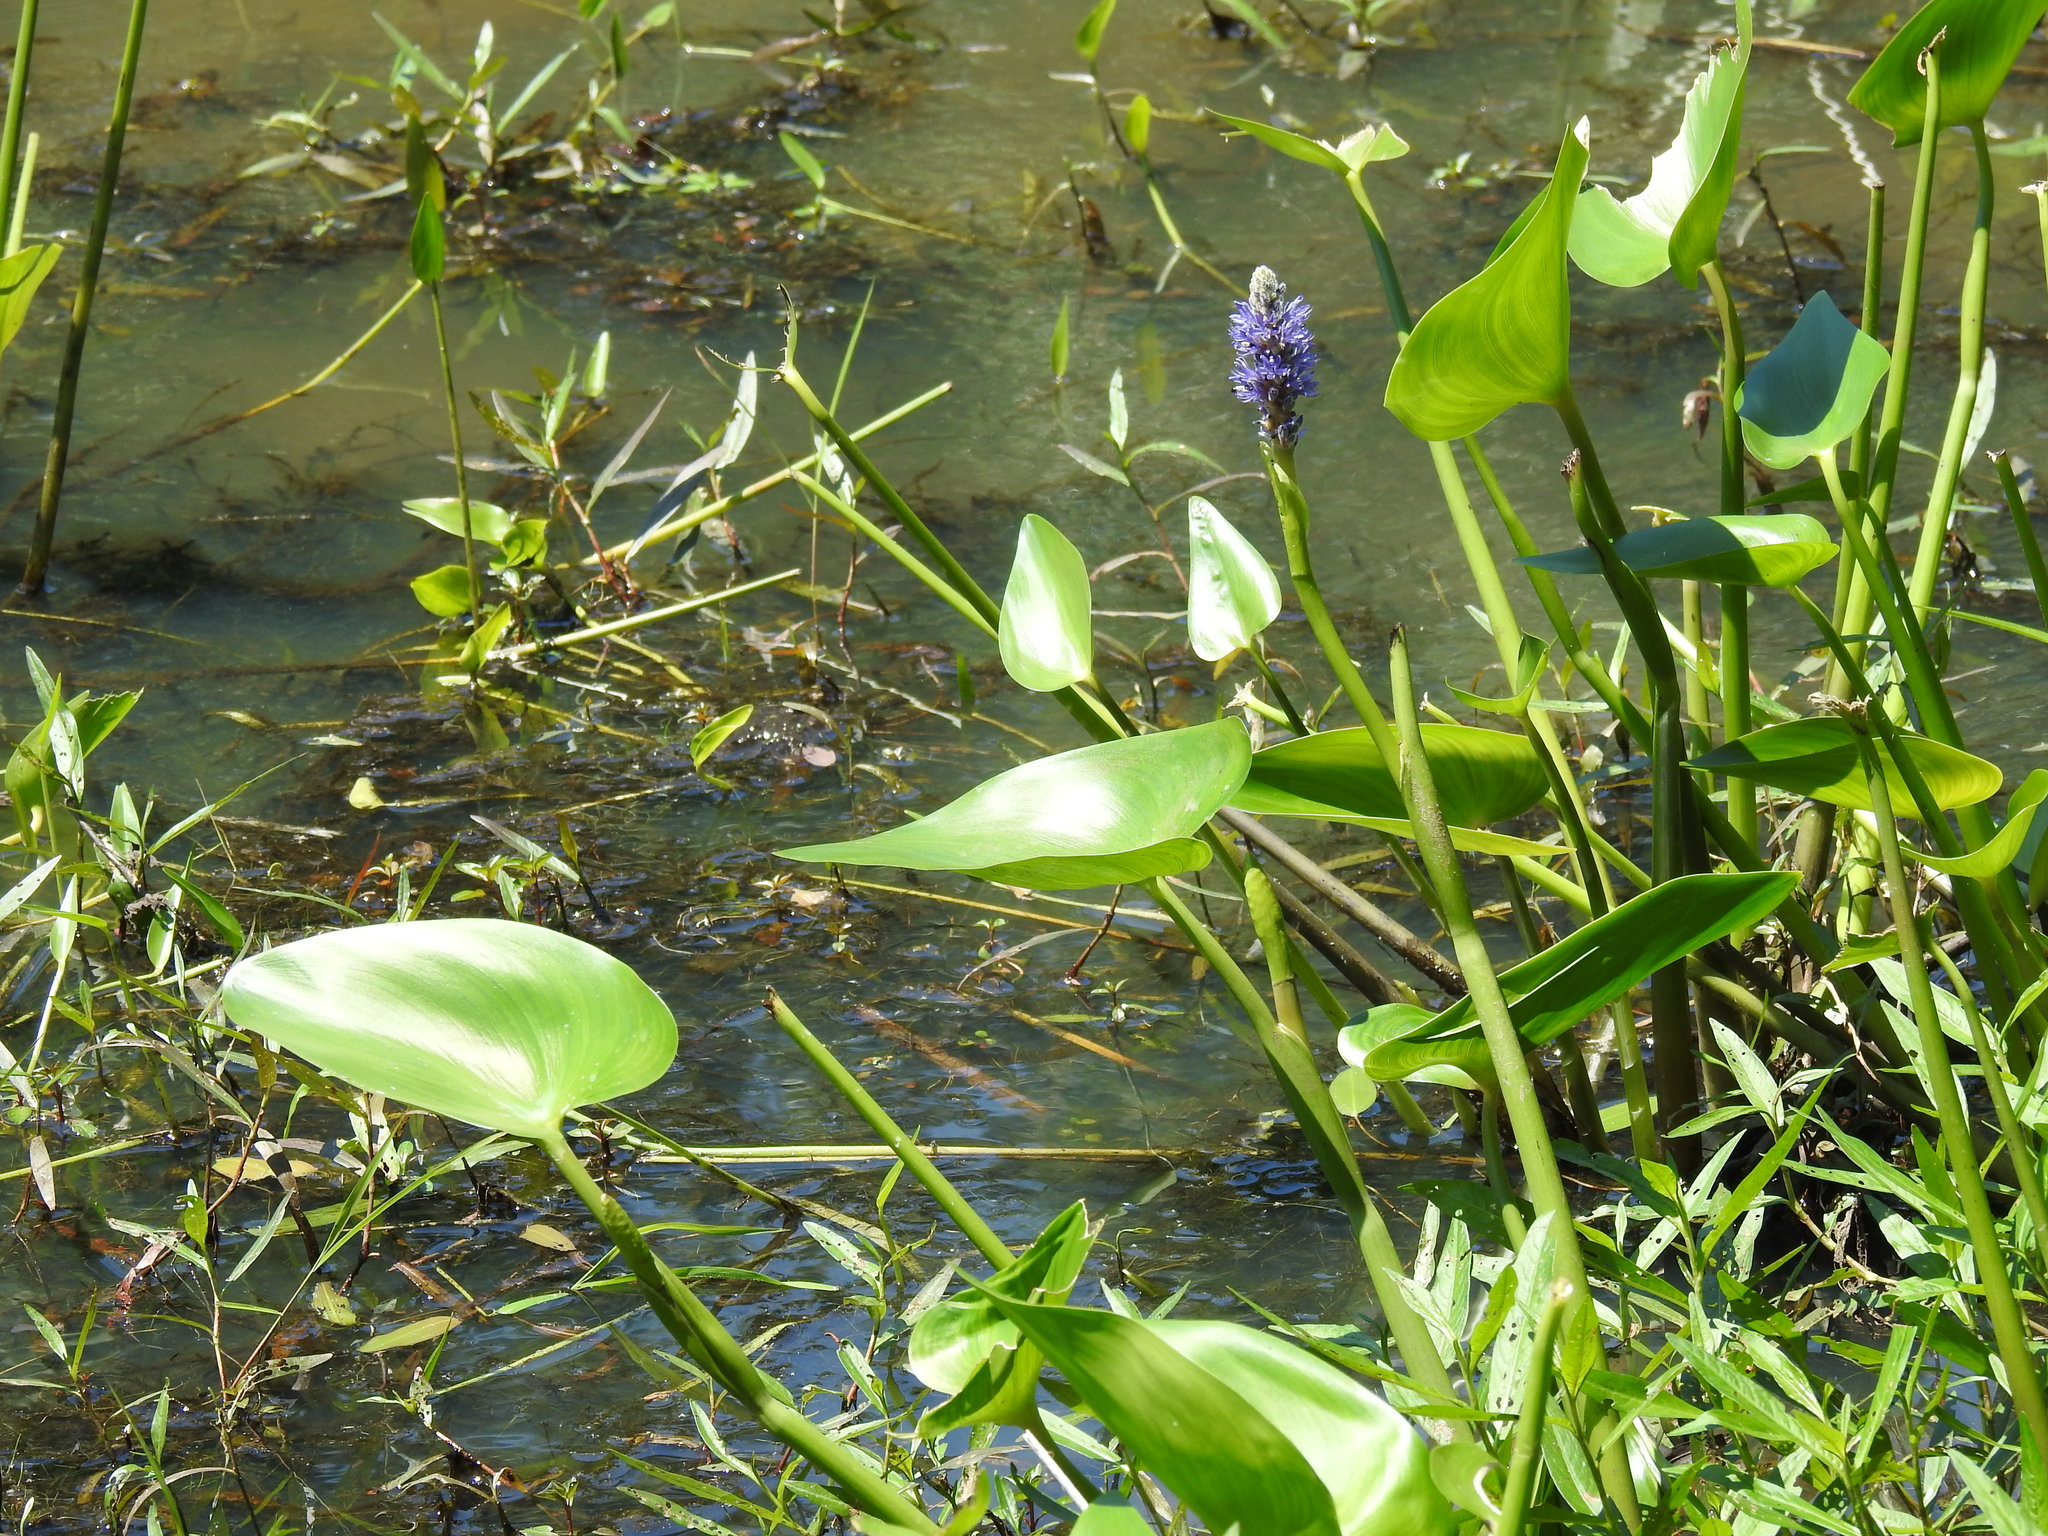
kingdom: Plantae
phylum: Tracheophyta
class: Liliopsida
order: Commelinales
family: Pontederiaceae
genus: Pontederia
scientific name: Pontederia cordata
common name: Pickerelweed
